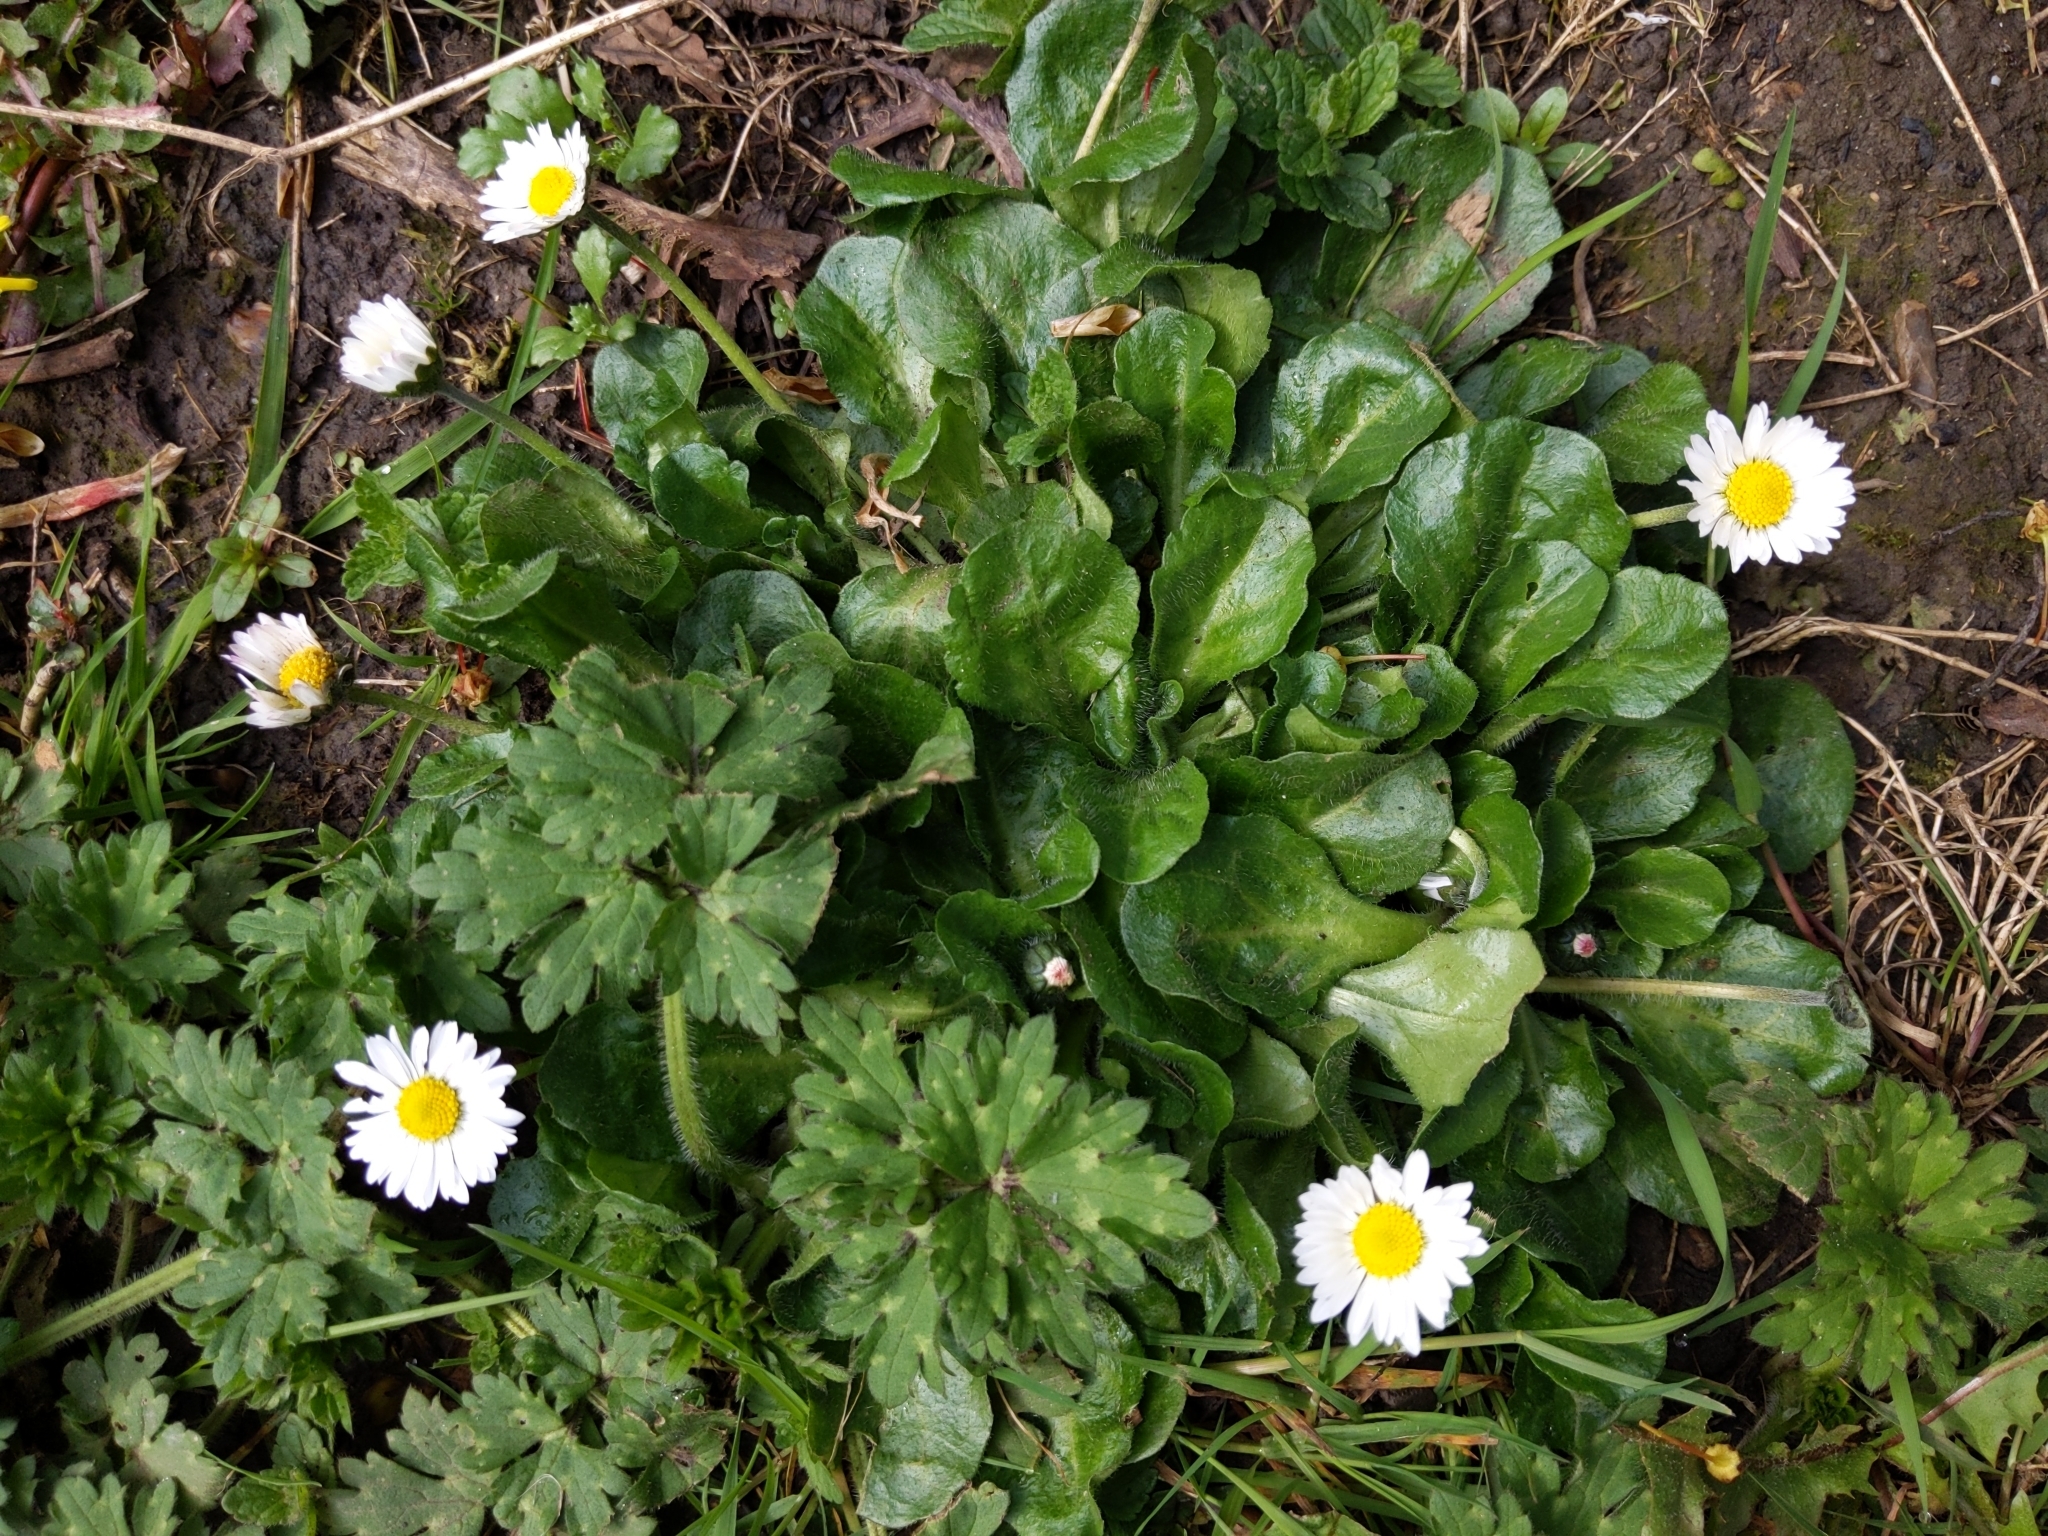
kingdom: Plantae
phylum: Tracheophyta
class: Magnoliopsida
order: Asterales
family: Asteraceae
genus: Bellis
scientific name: Bellis perennis
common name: Lawndaisy
